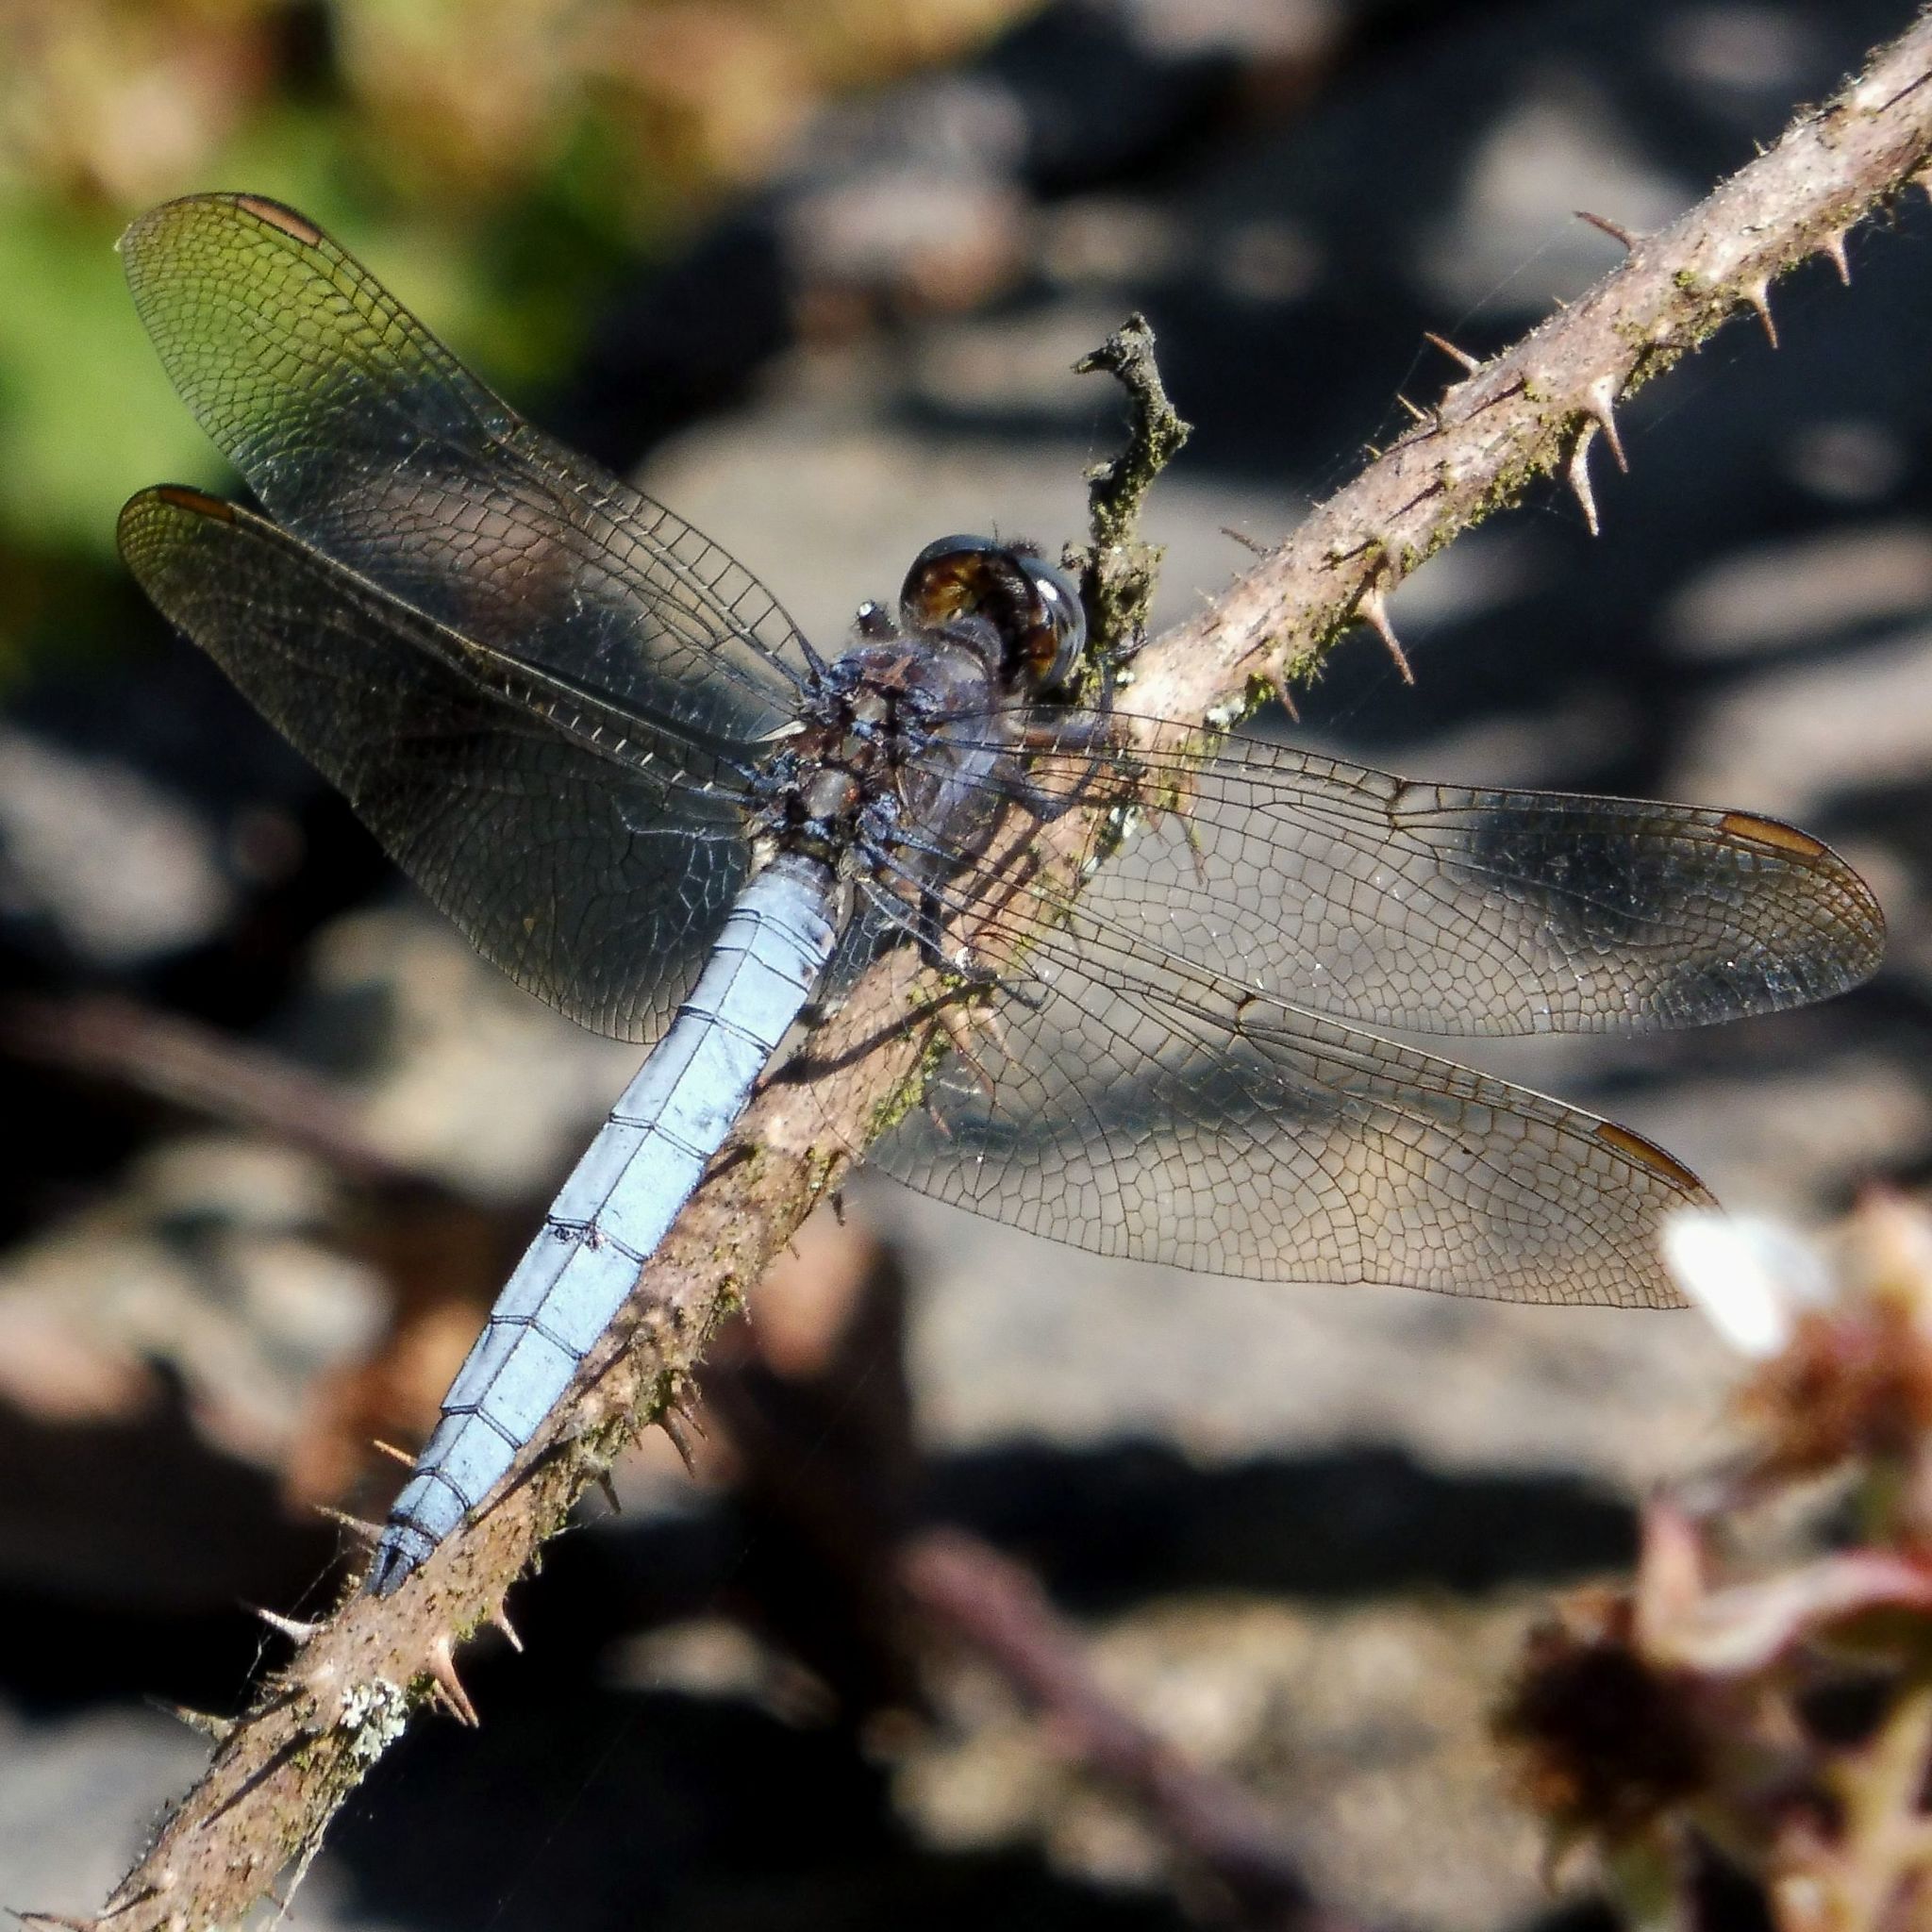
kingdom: Animalia
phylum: Arthropoda
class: Insecta
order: Odonata
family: Libellulidae
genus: Orthetrum
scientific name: Orthetrum coerulescens
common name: Keeled skimmer
